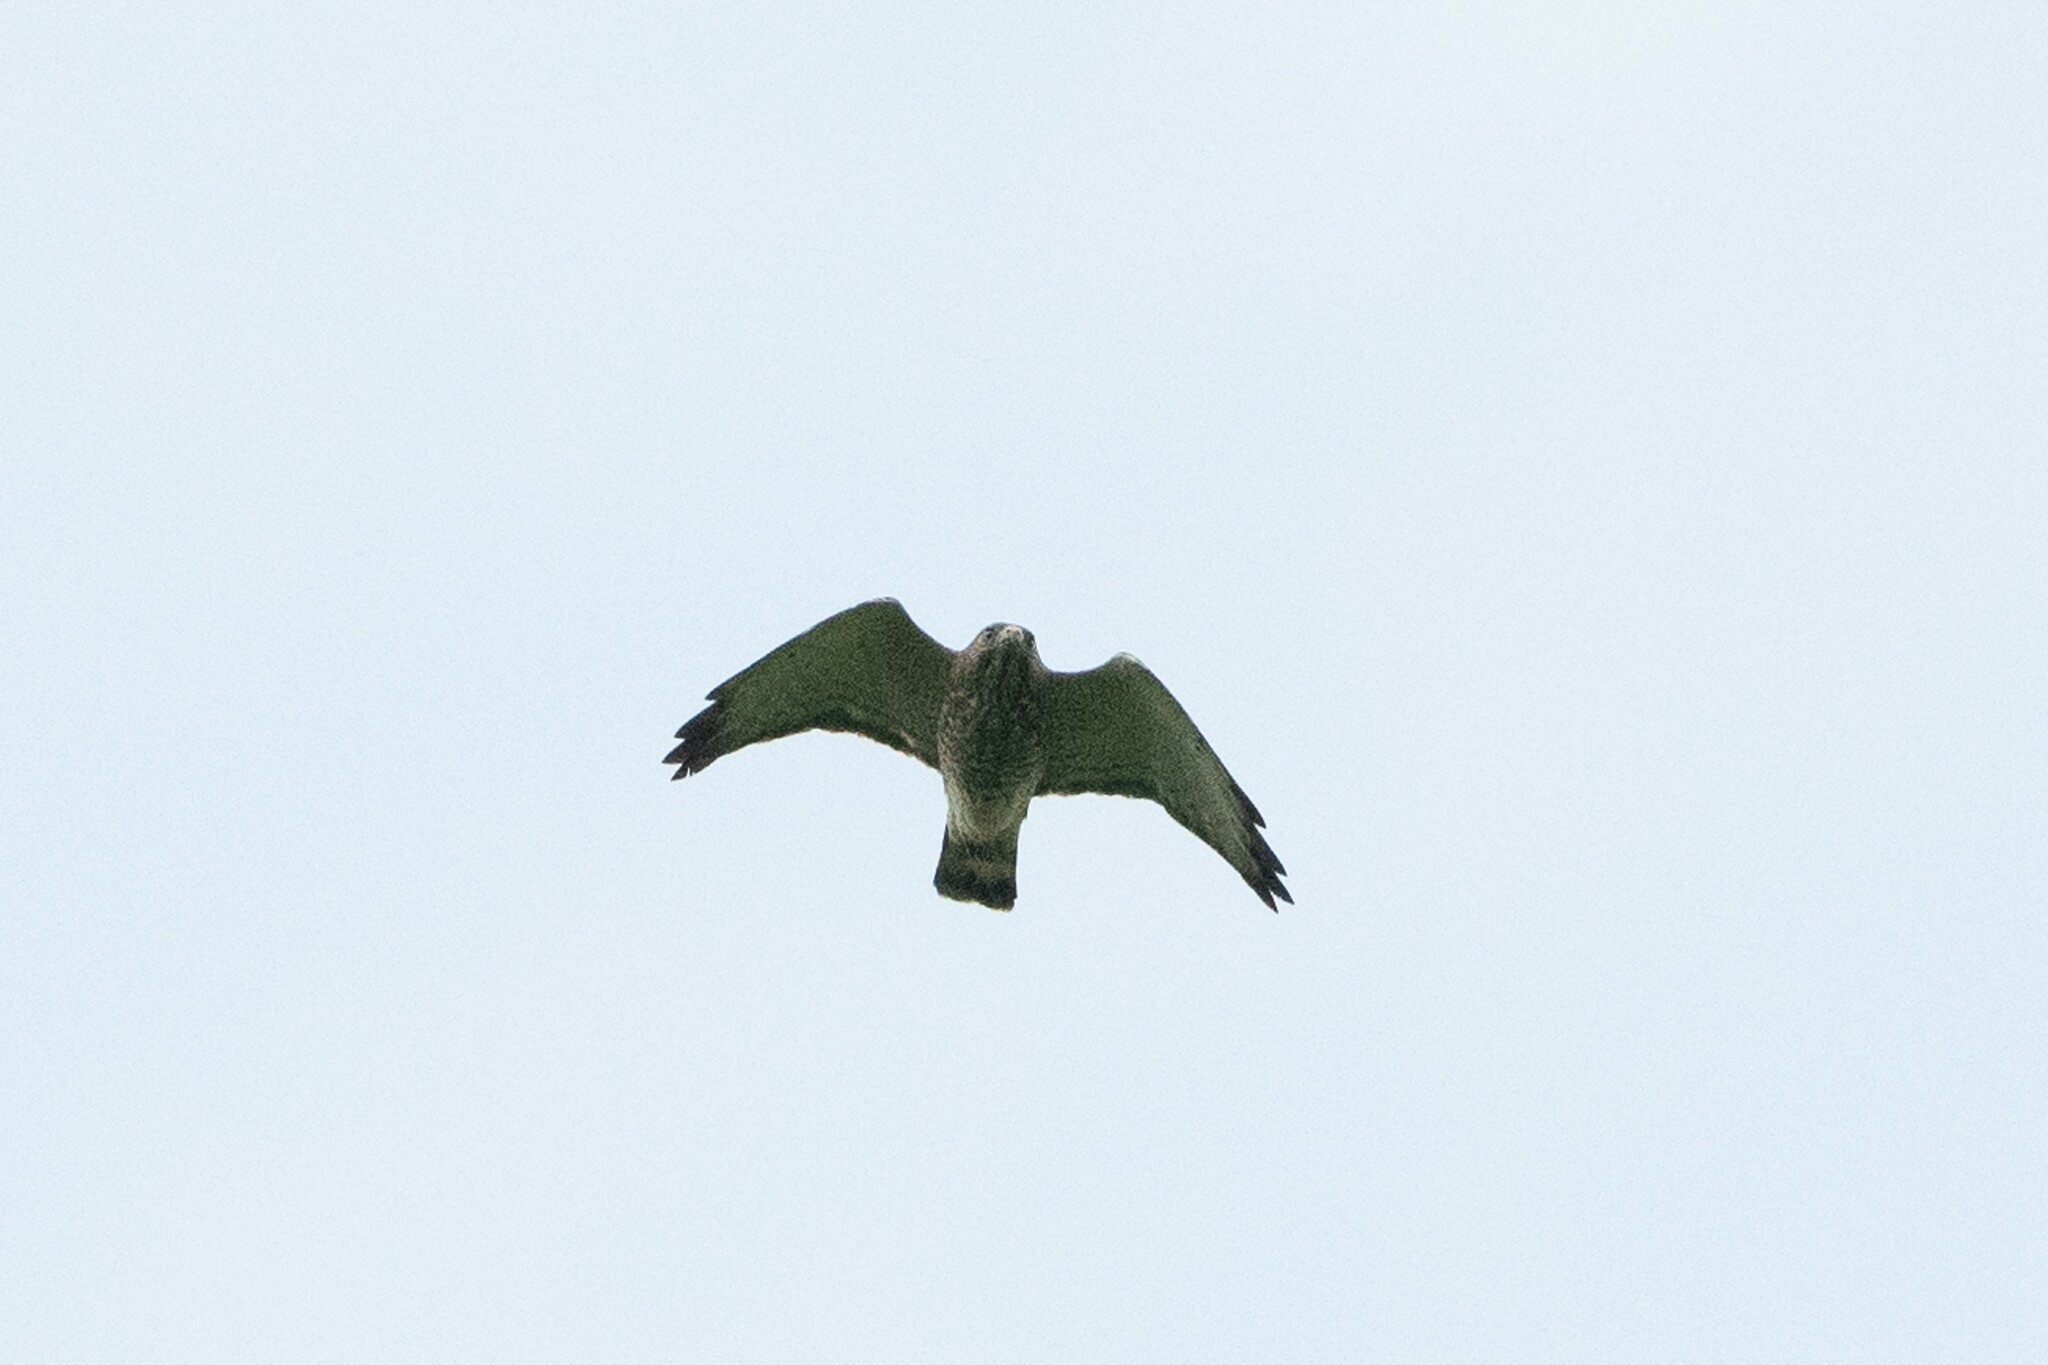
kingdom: Animalia
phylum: Chordata
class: Aves
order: Accipitriformes
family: Accipitridae
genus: Buteo
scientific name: Buteo platypterus
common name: Broad-winged hawk
